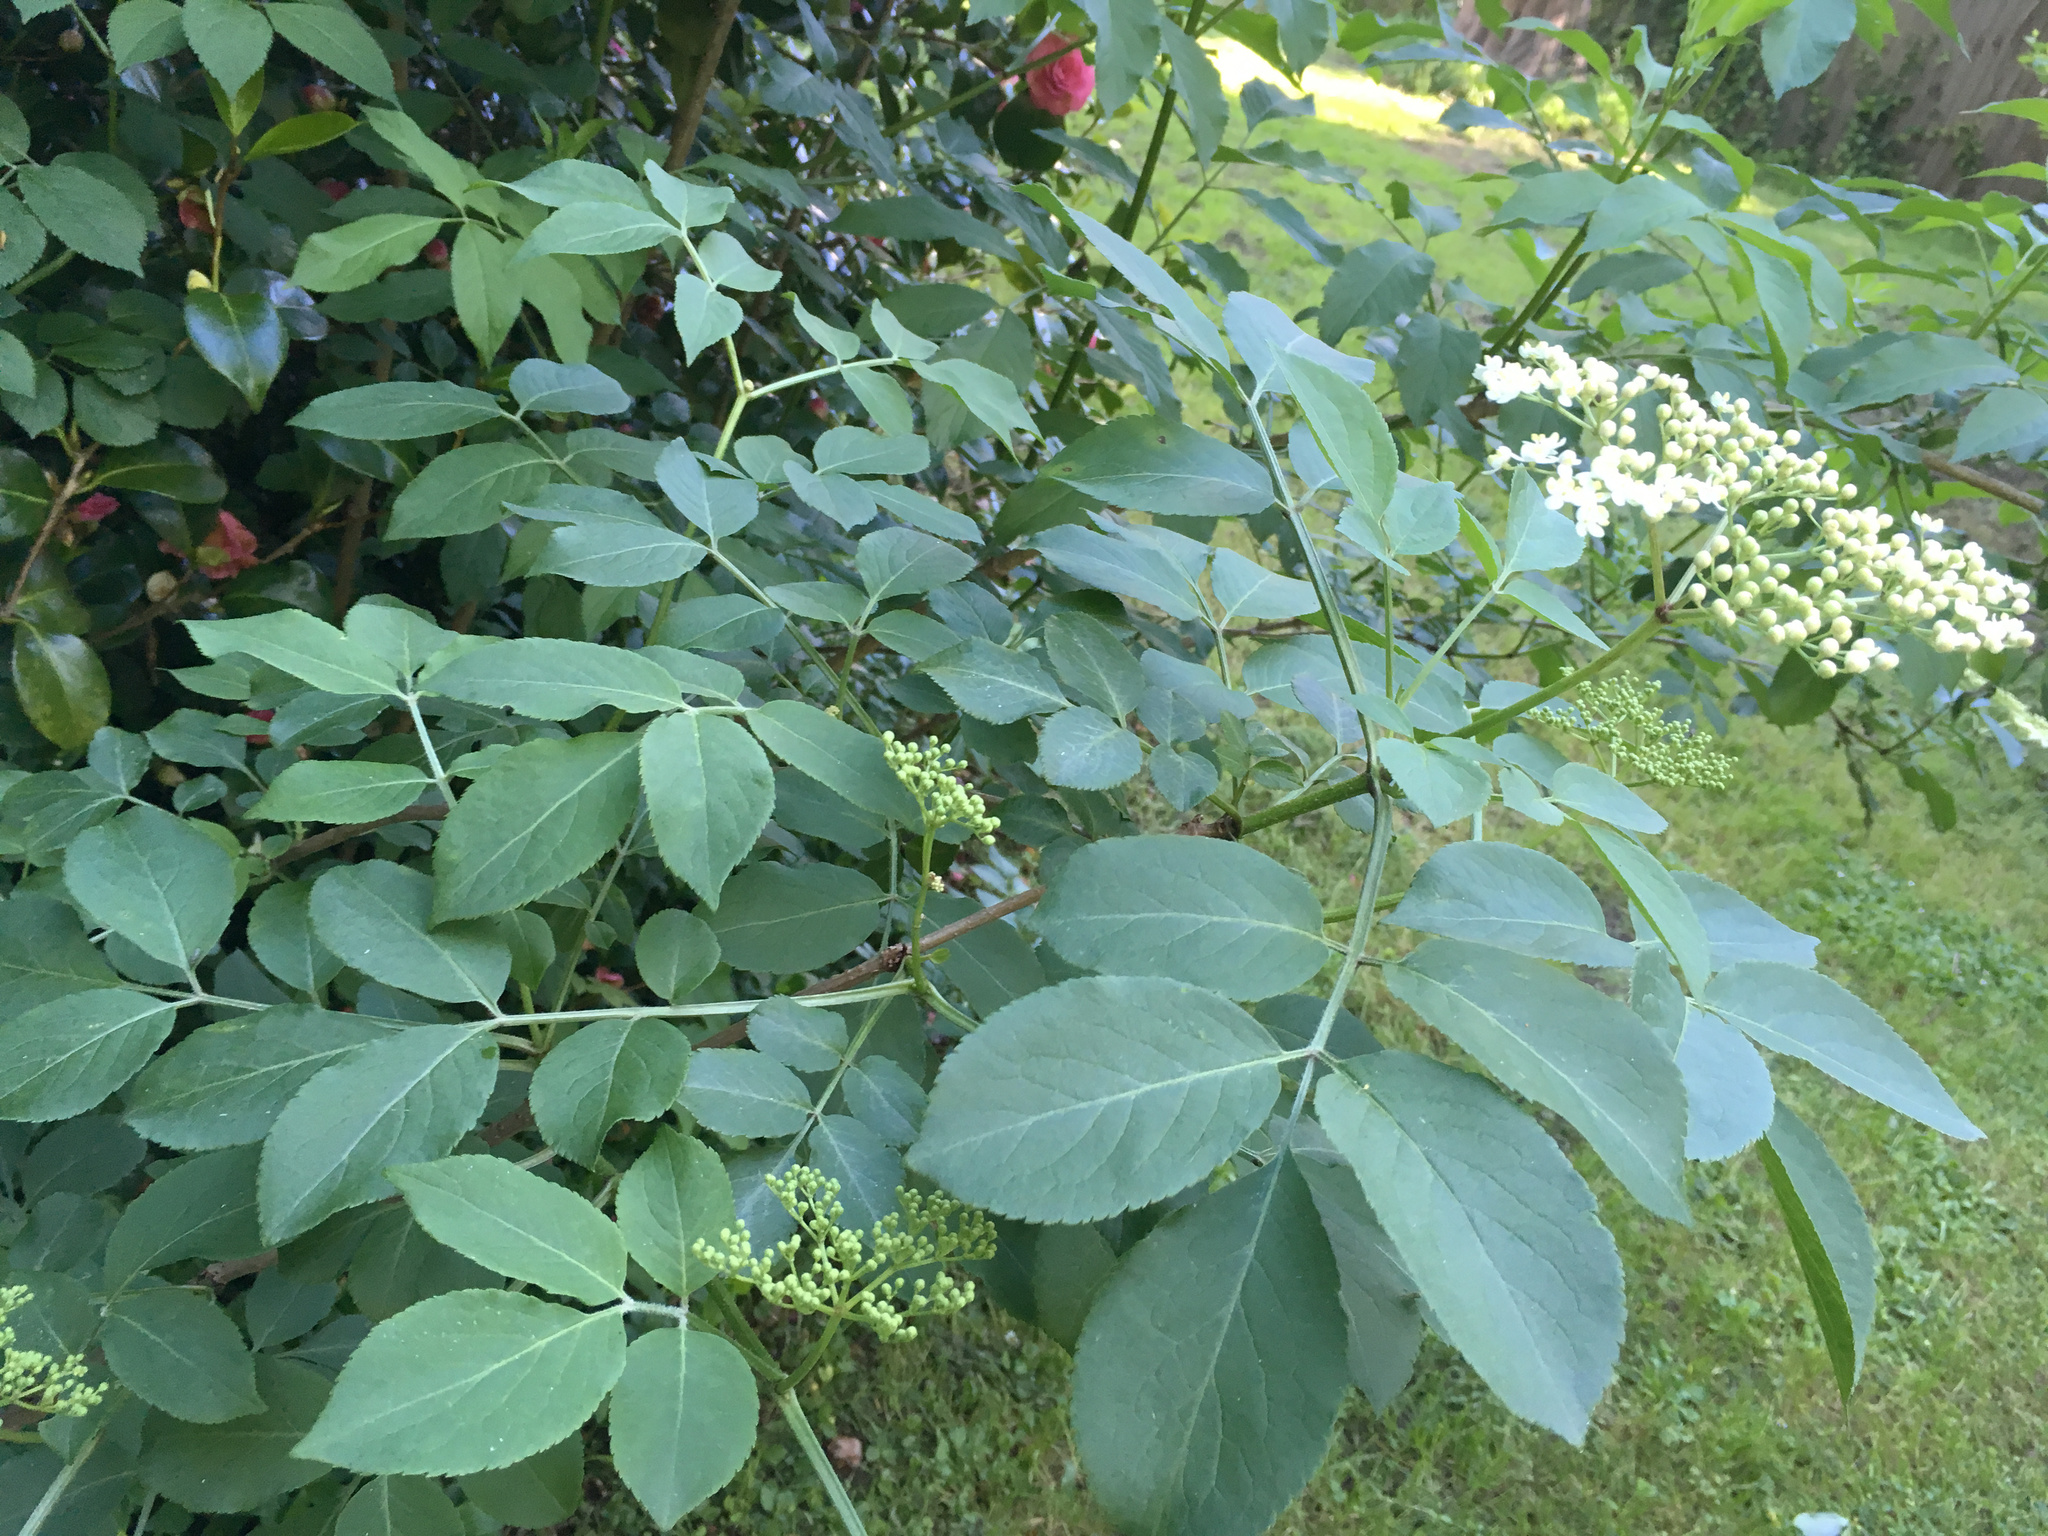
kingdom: Plantae
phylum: Tracheophyta
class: Magnoliopsida
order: Dipsacales
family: Viburnaceae
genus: Sambucus
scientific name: Sambucus nigra
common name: Elder
